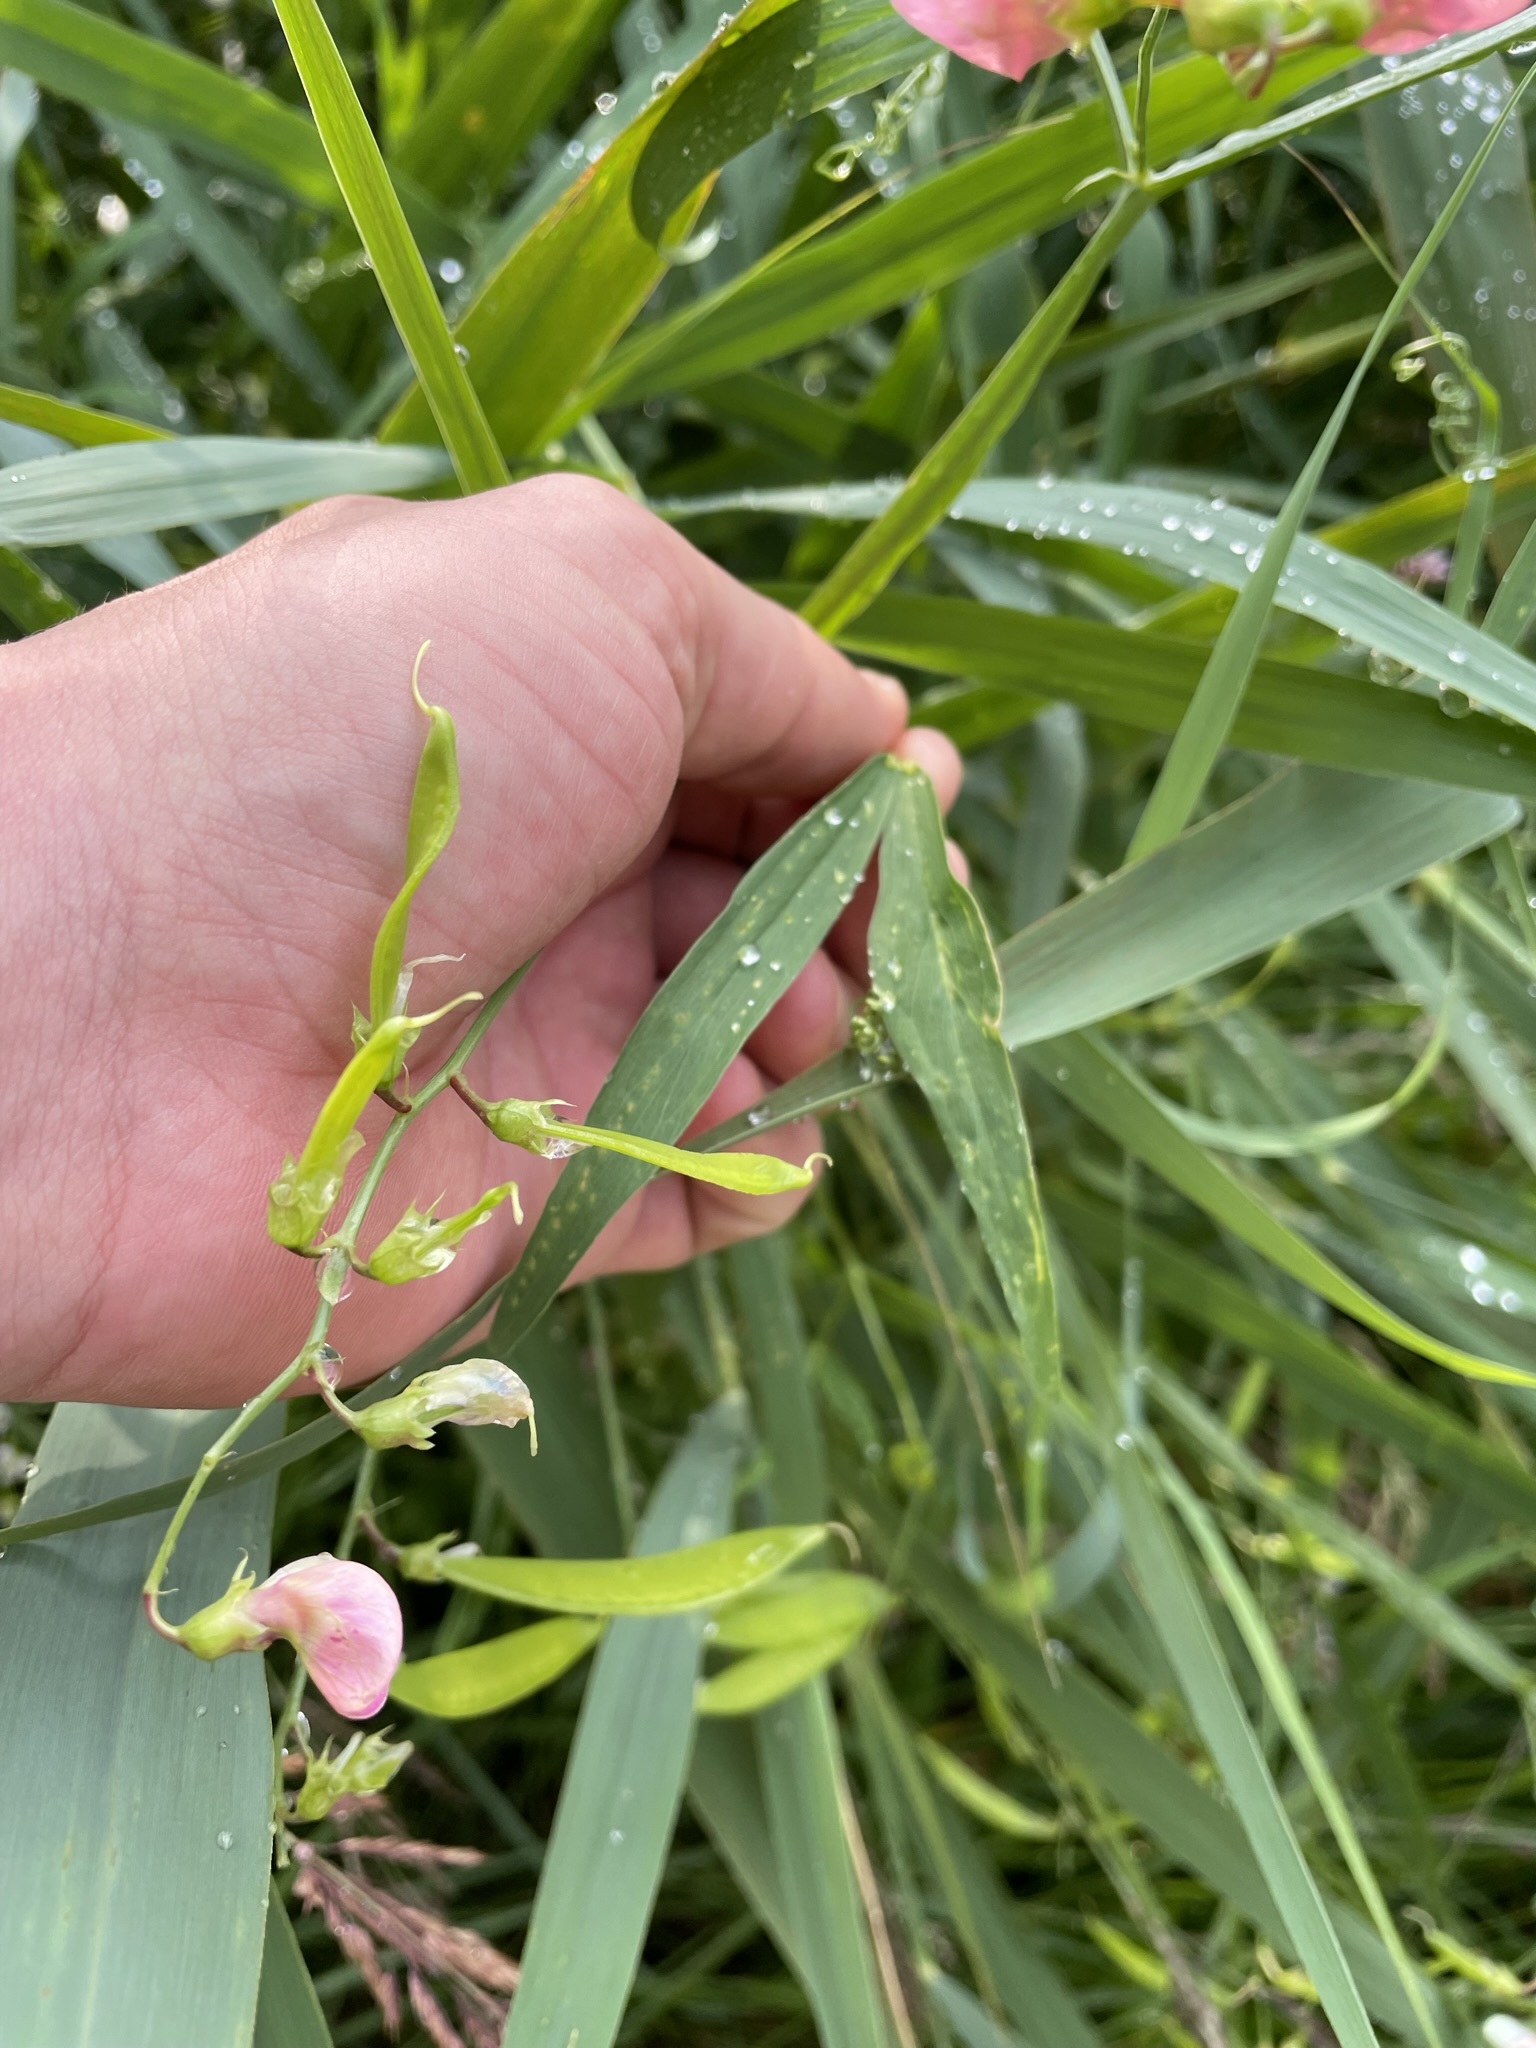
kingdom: Plantae
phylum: Tracheophyta
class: Magnoliopsida
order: Fabales
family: Fabaceae
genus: Lathyrus
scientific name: Lathyrus sylvestris
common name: Flat pea
